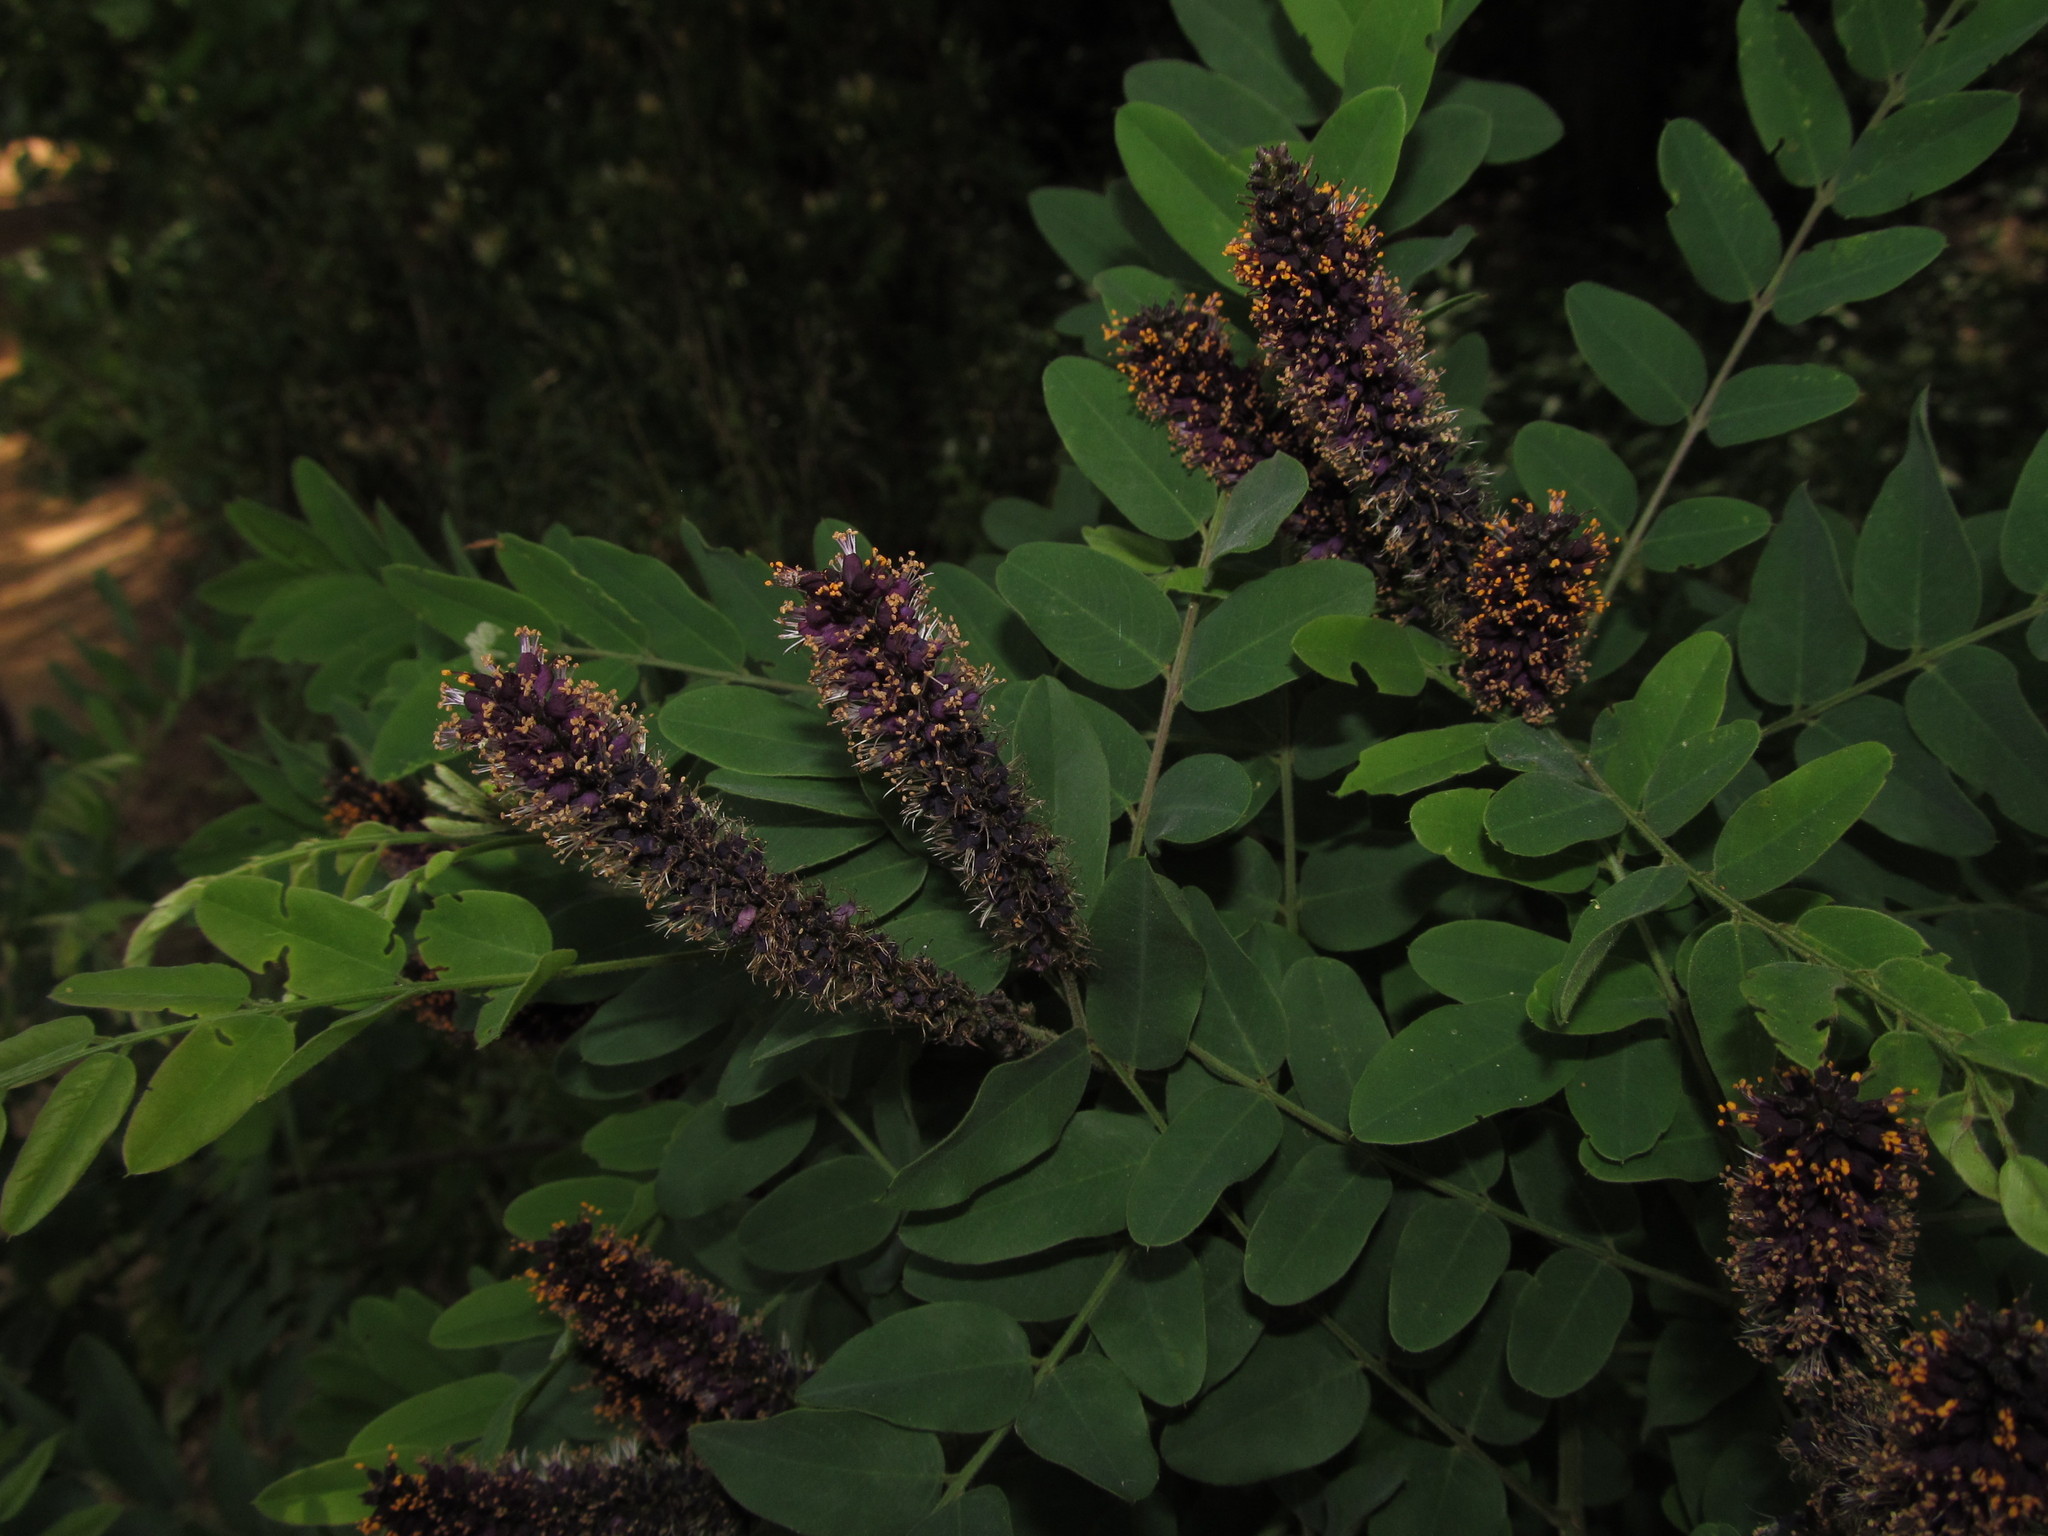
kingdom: Plantae
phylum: Tracheophyta
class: Magnoliopsida
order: Fabales
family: Fabaceae
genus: Amorpha
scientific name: Amorpha fruticosa
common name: False indigo
